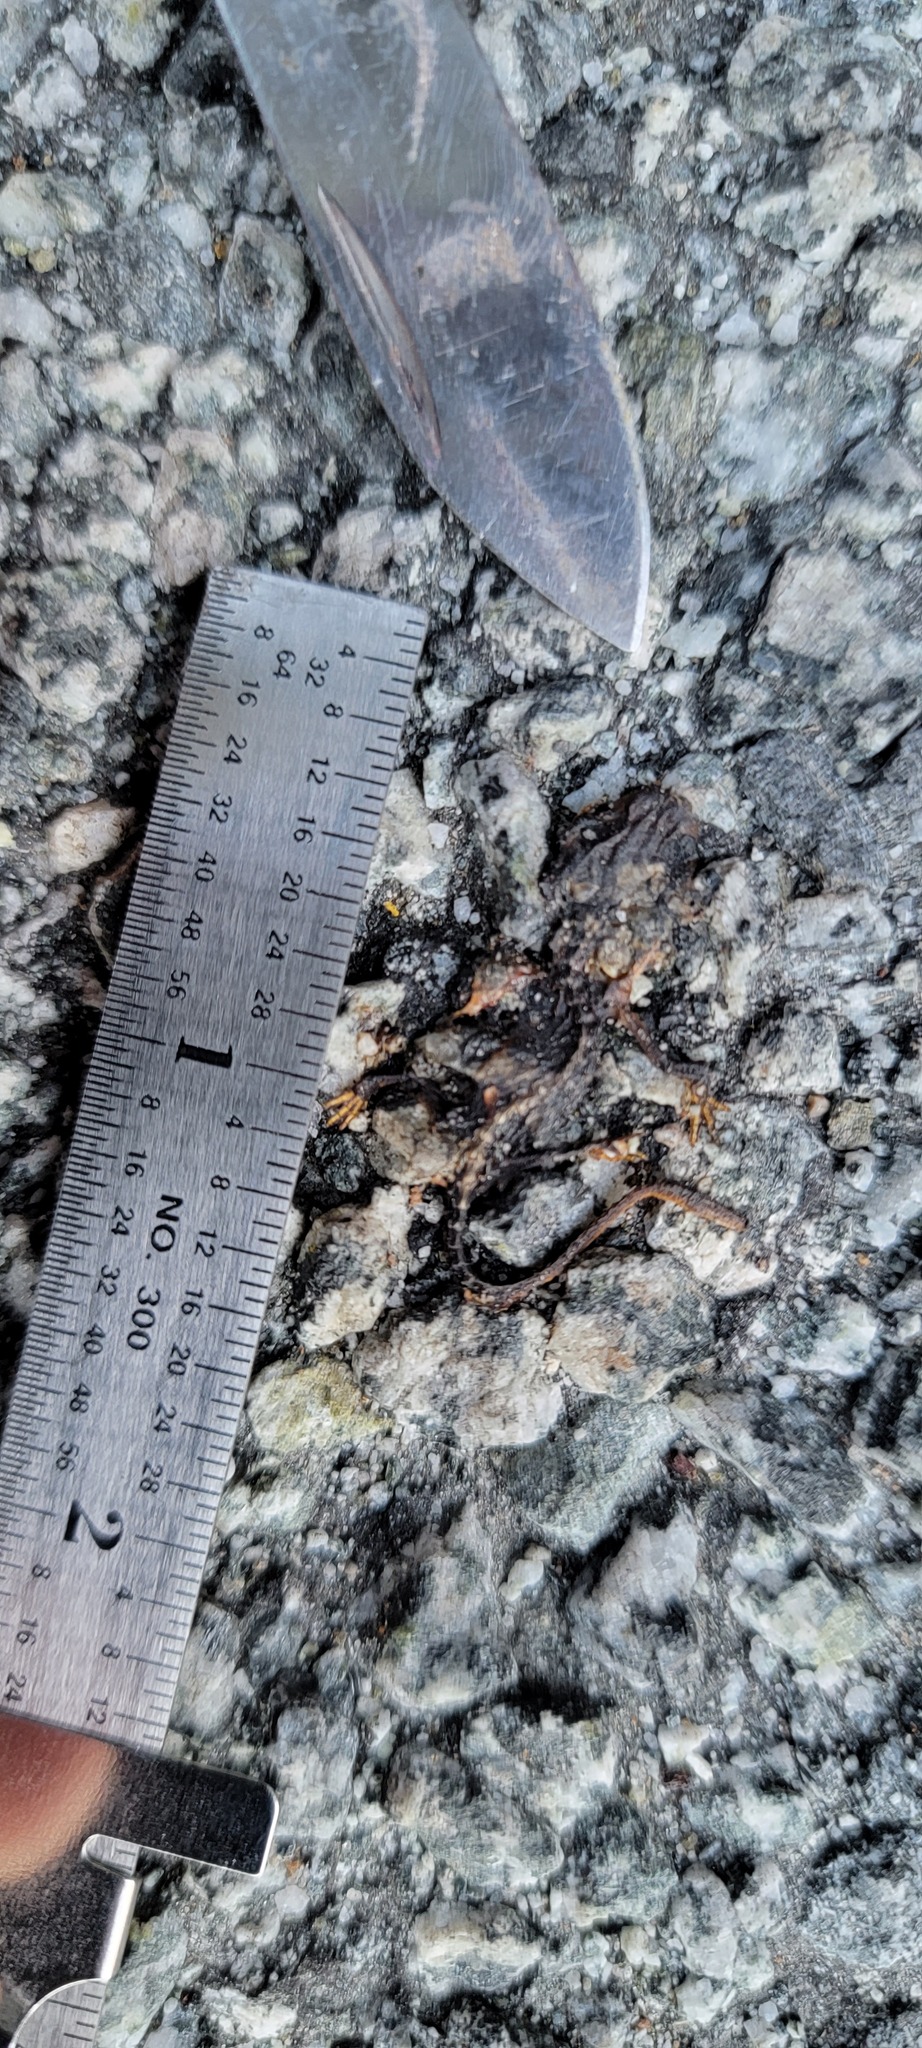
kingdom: Animalia
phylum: Chordata
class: Amphibia
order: Caudata
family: Salamandridae
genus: Taricha
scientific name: Taricha
